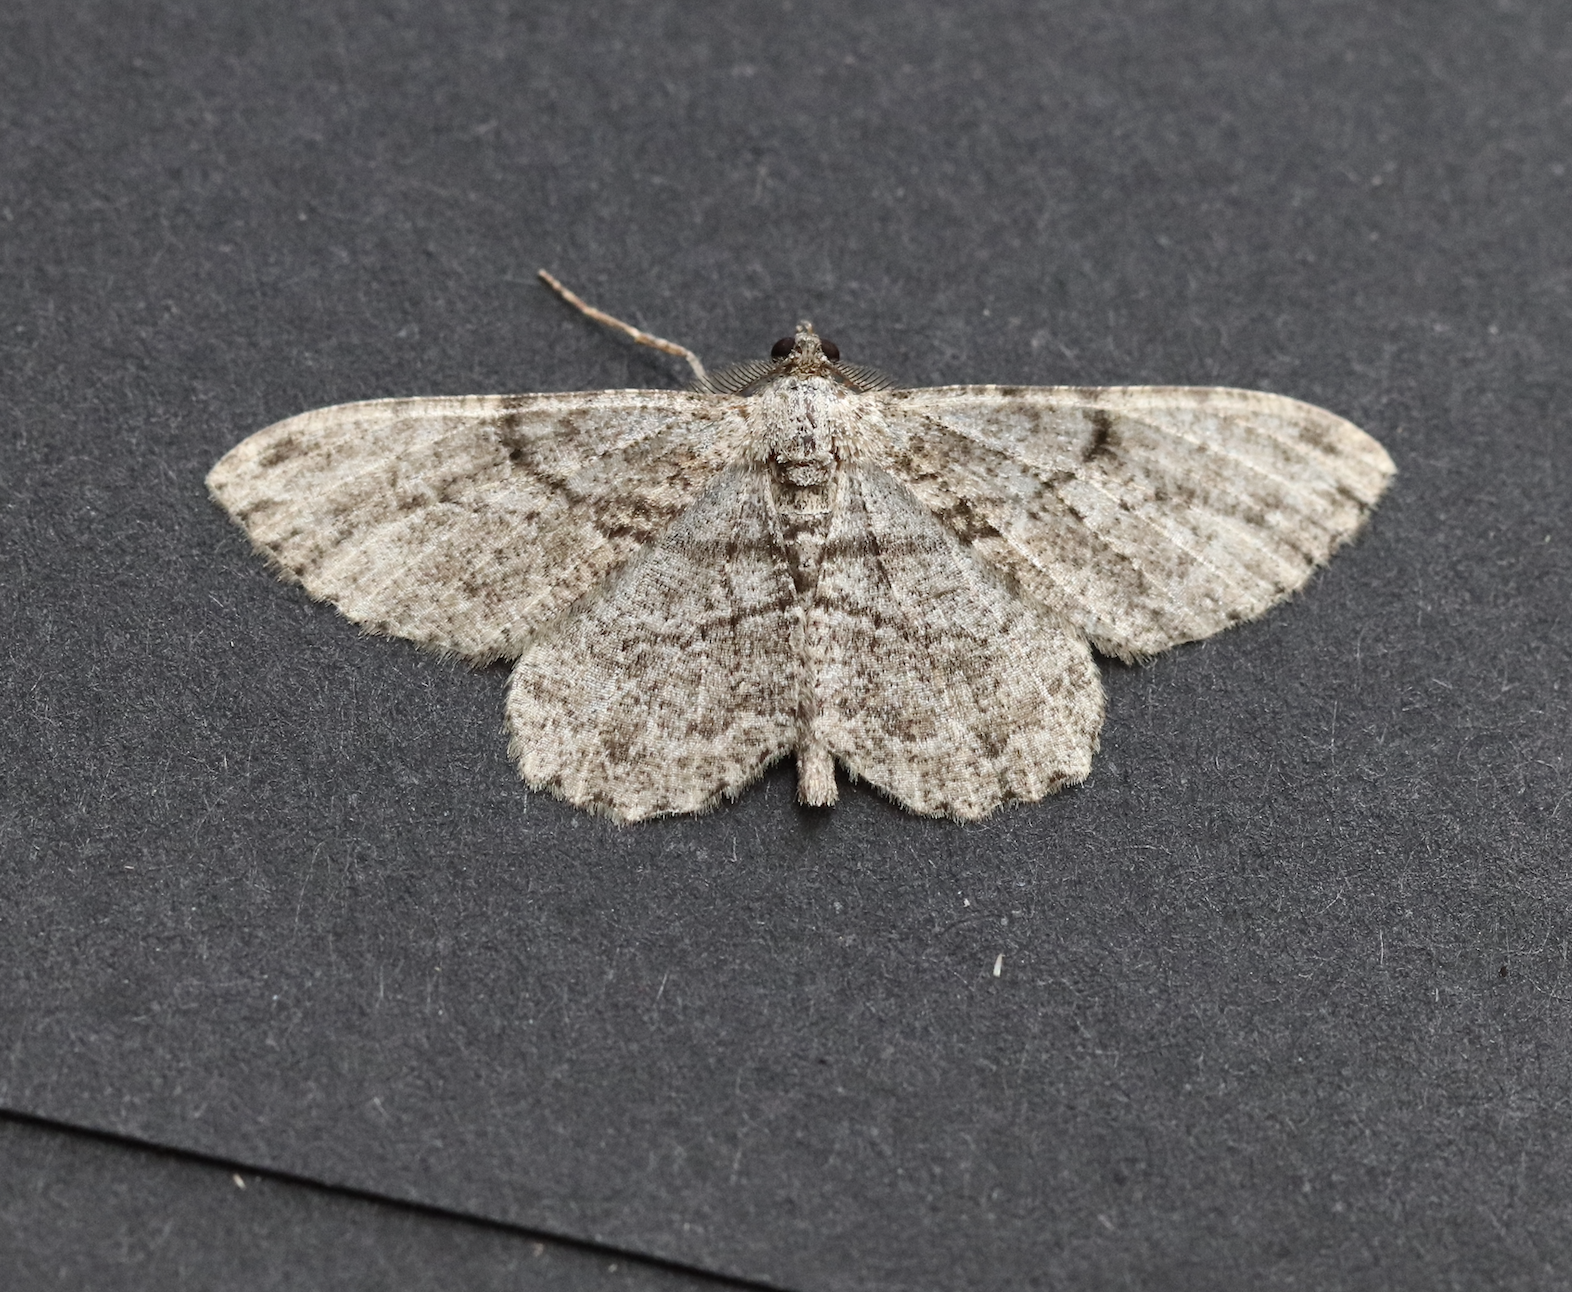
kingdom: Animalia
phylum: Arthropoda
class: Insecta
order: Lepidoptera
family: Geometridae
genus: Peribatodes
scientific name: Peribatodes rhomboidaria
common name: Willow beauty
